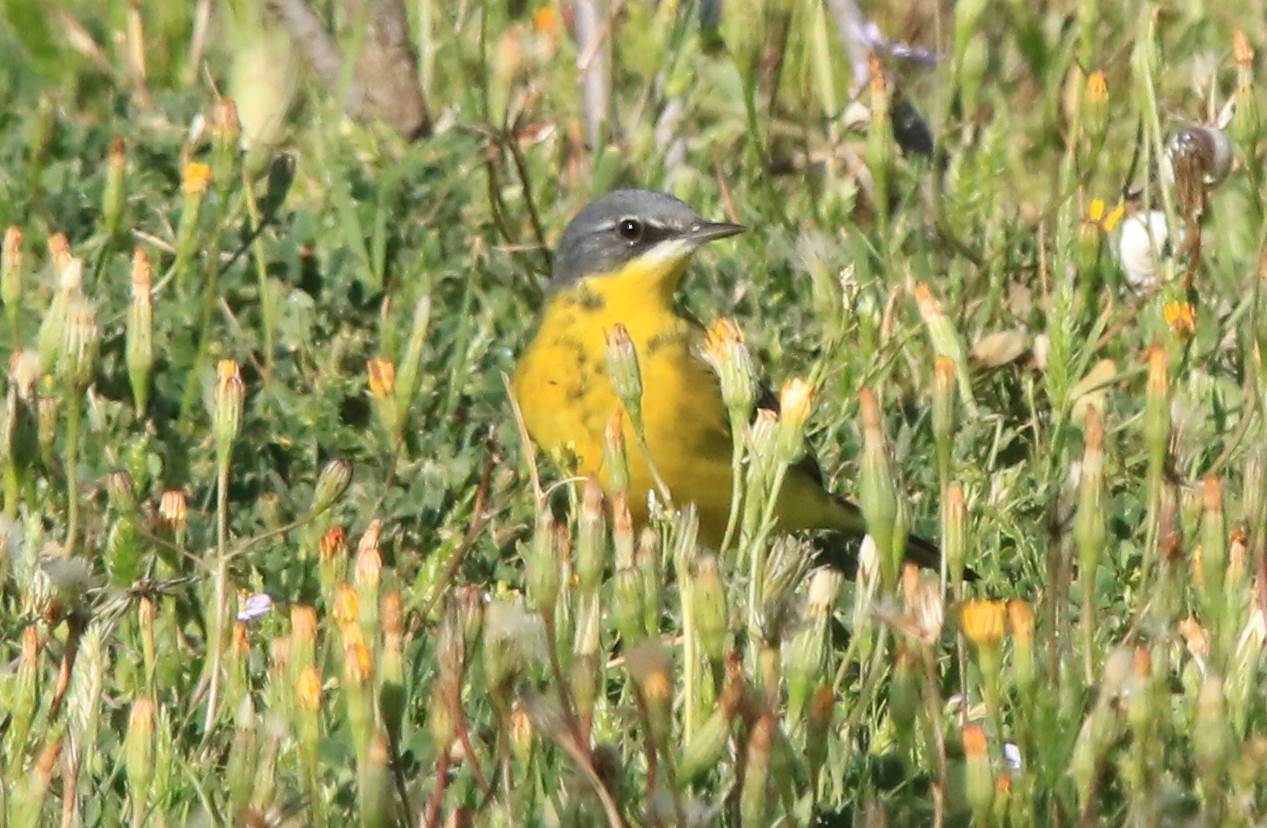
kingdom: Animalia
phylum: Chordata
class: Aves
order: Passeriformes
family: Motacillidae
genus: Motacilla
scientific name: Motacilla flava
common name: Western yellow wagtail
